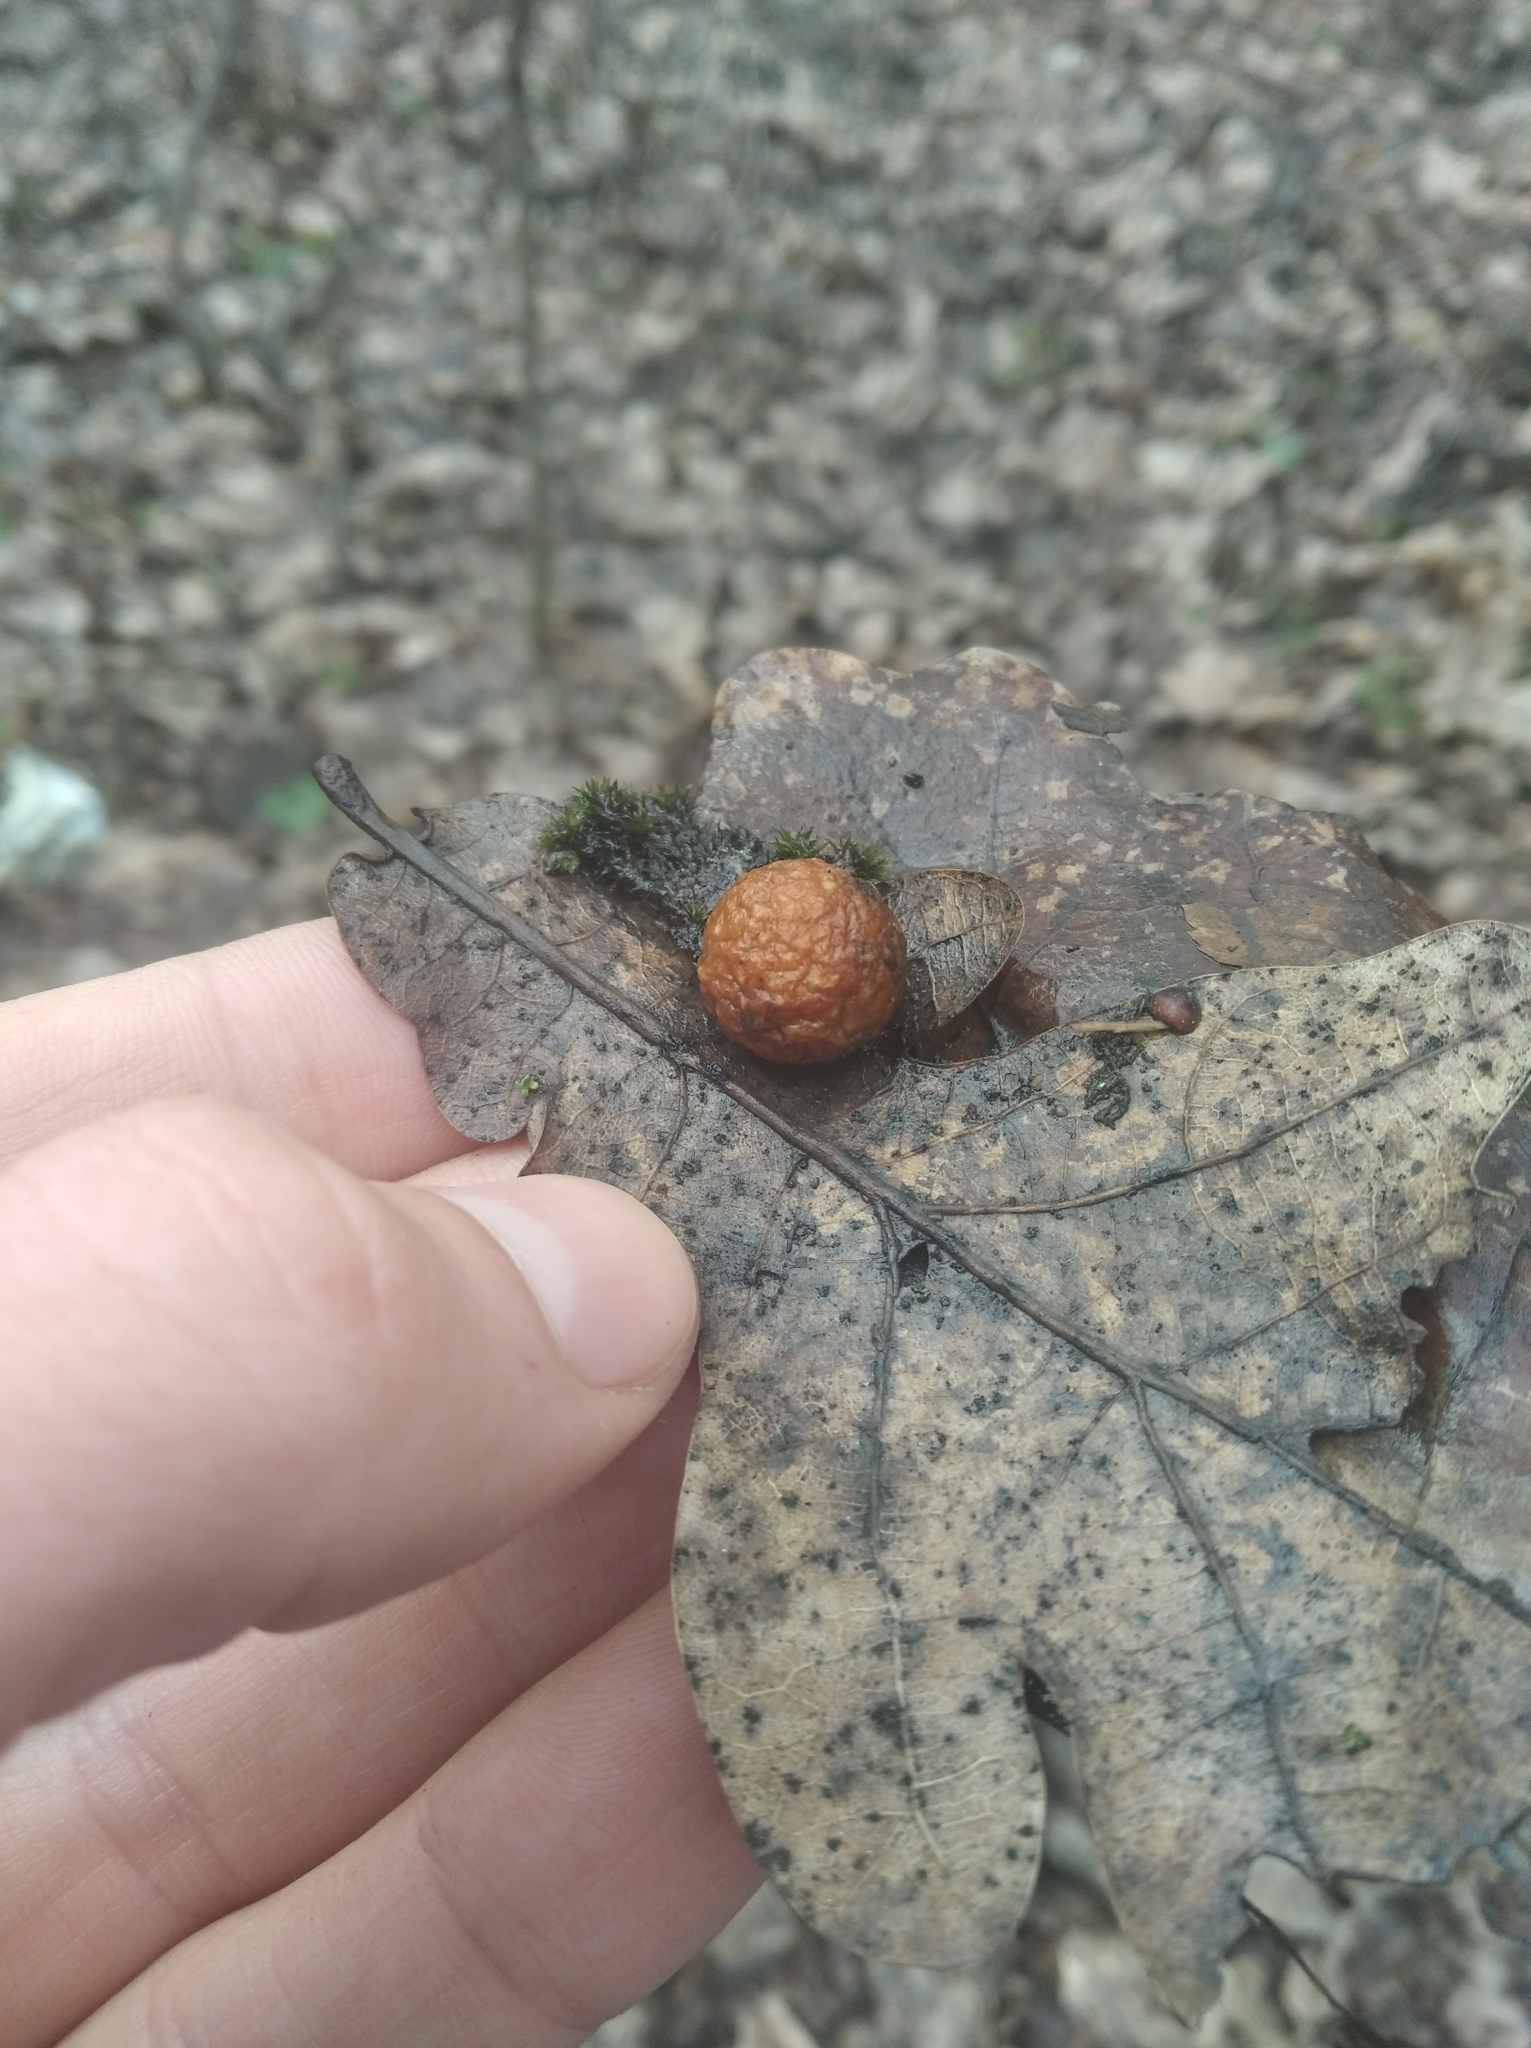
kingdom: Animalia
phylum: Arthropoda
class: Insecta
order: Hymenoptera
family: Cynipidae
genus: Cynips
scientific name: Cynips quercusfolii
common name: Cherry gall
